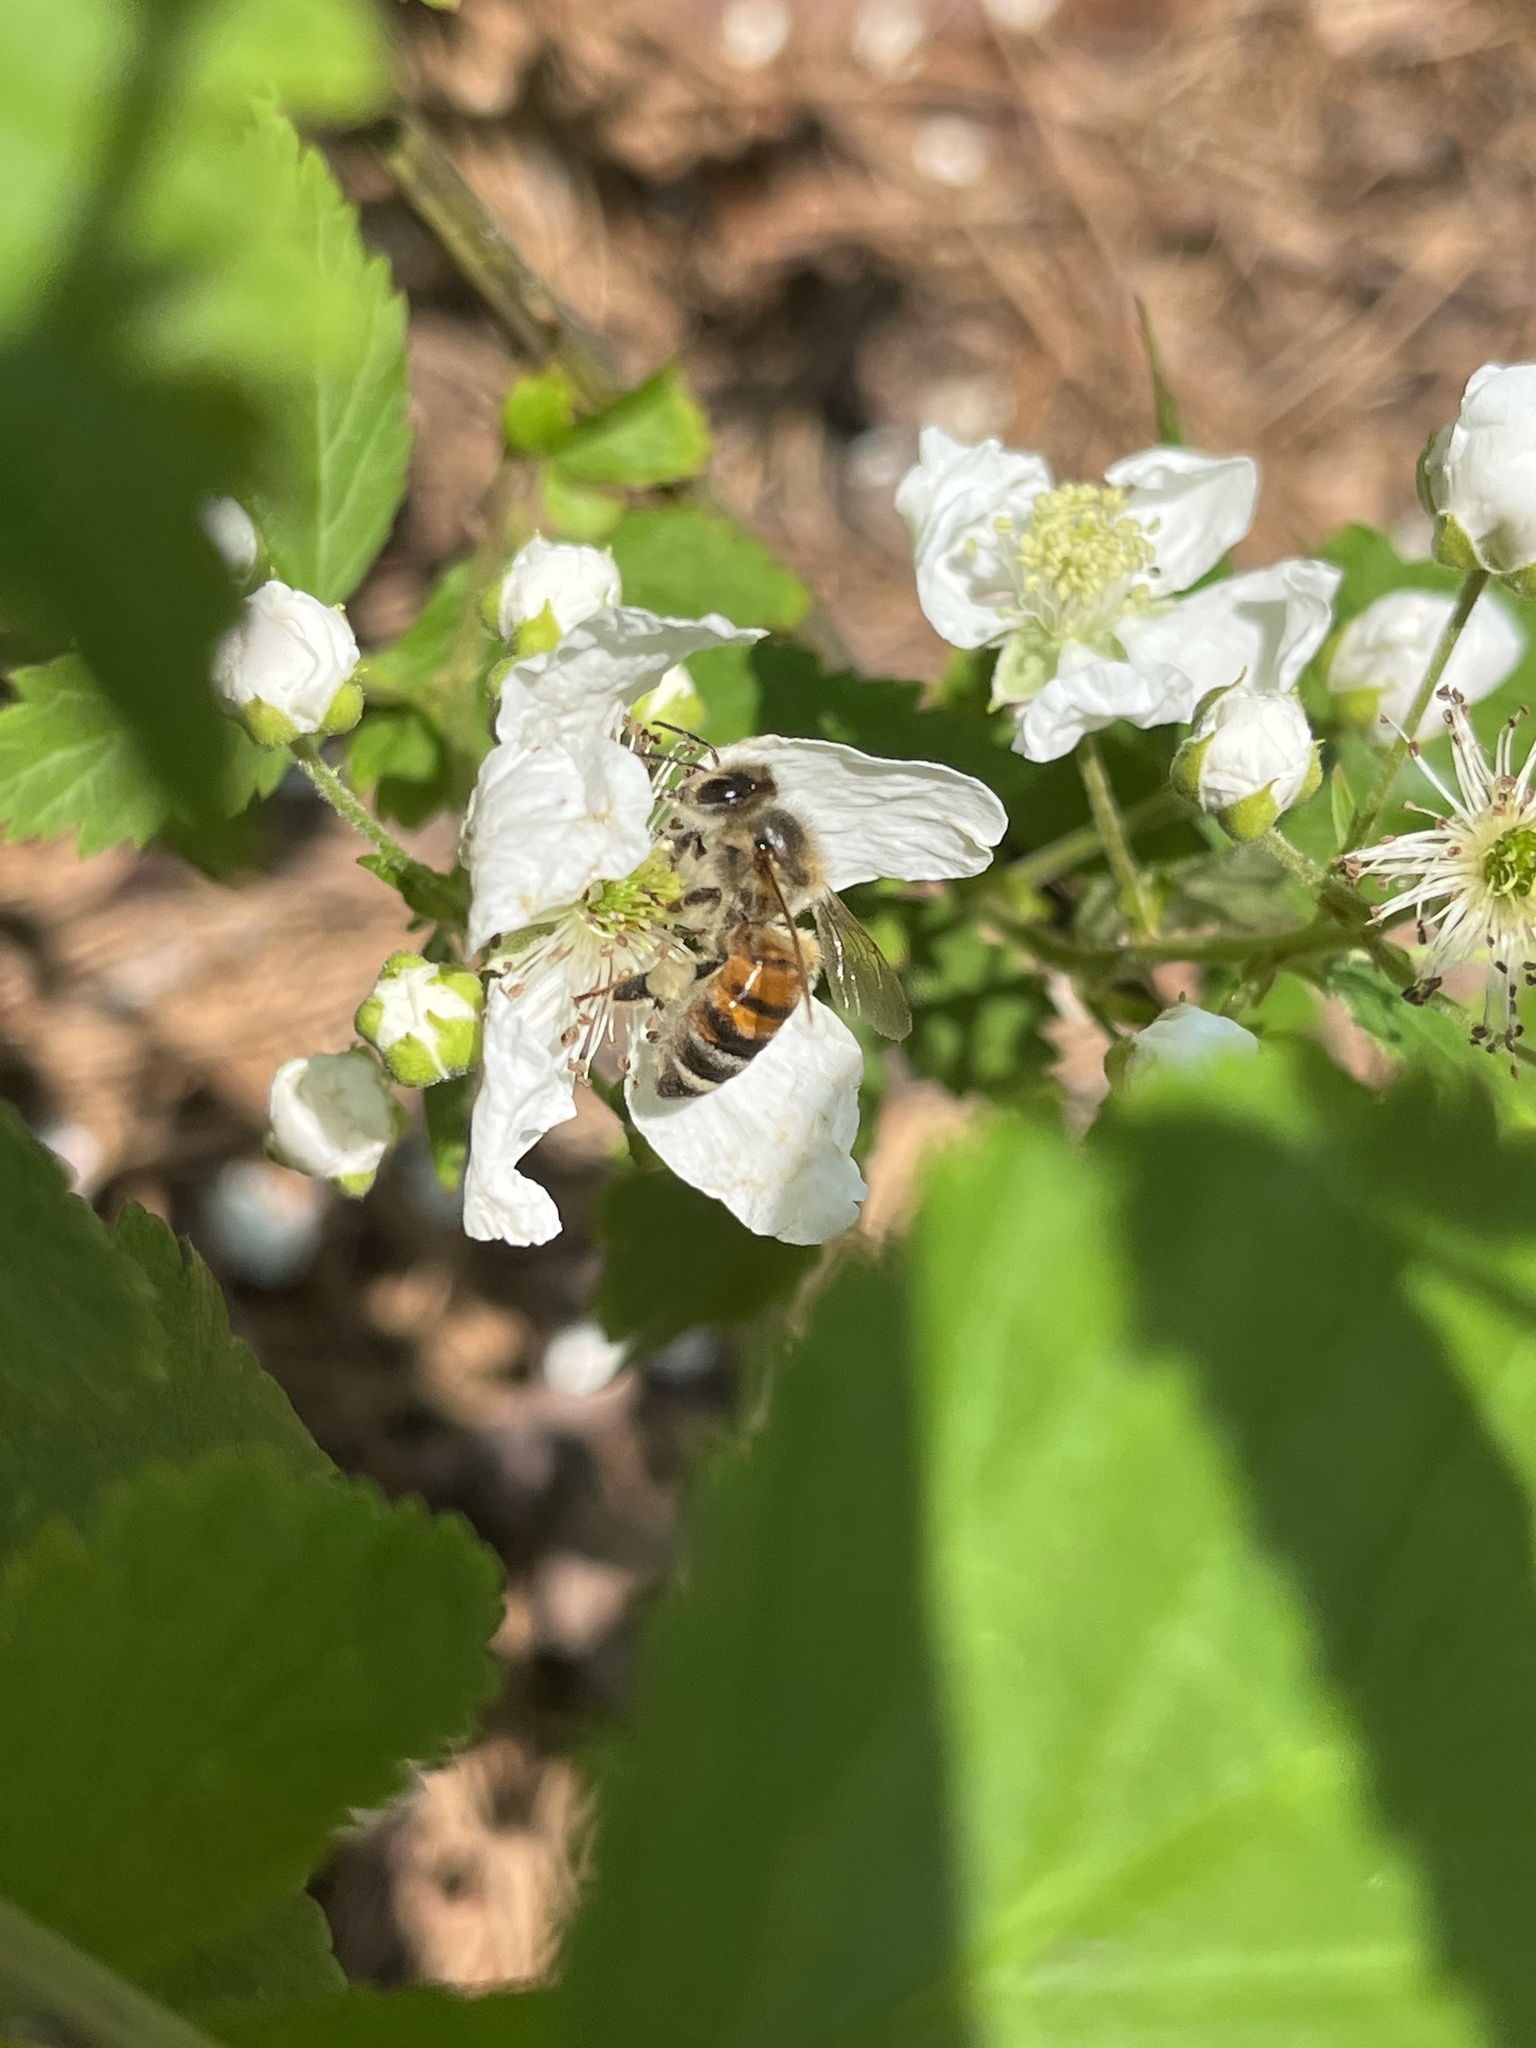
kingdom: Animalia
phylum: Arthropoda
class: Insecta
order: Hymenoptera
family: Apidae
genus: Apis
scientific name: Apis mellifera
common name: Honey bee
